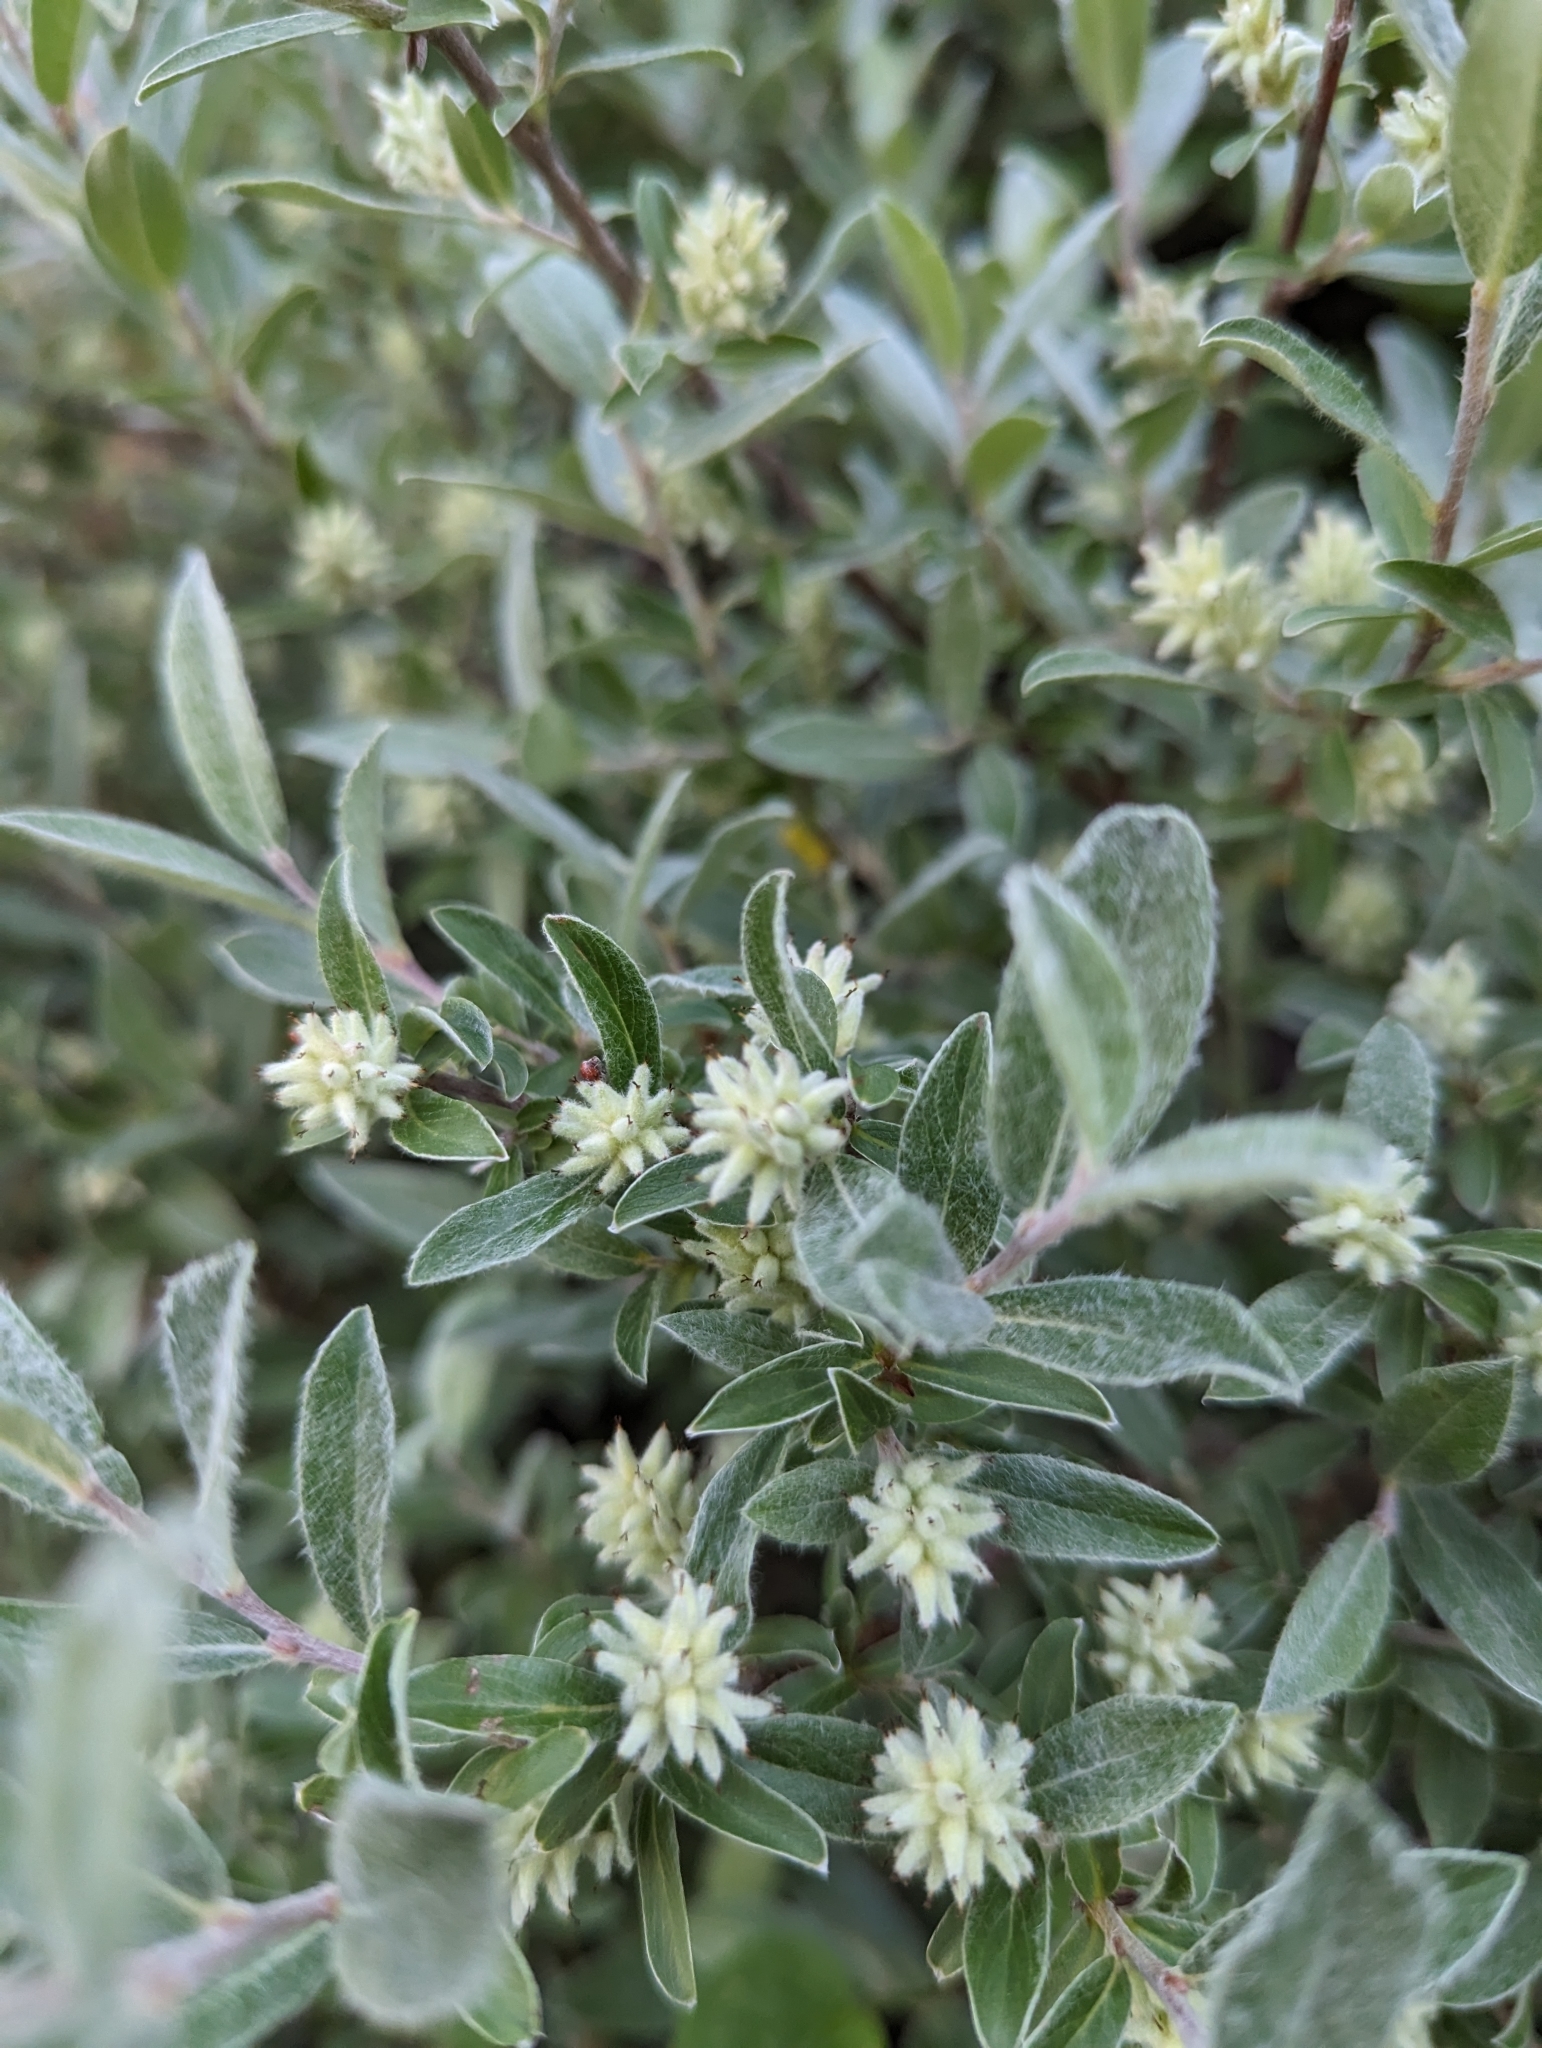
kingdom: Plantae
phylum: Tracheophyta
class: Magnoliopsida
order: Malpighiales
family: Salicaceae
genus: Salix
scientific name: Salix brachycarpa
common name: Barren-ground willow
